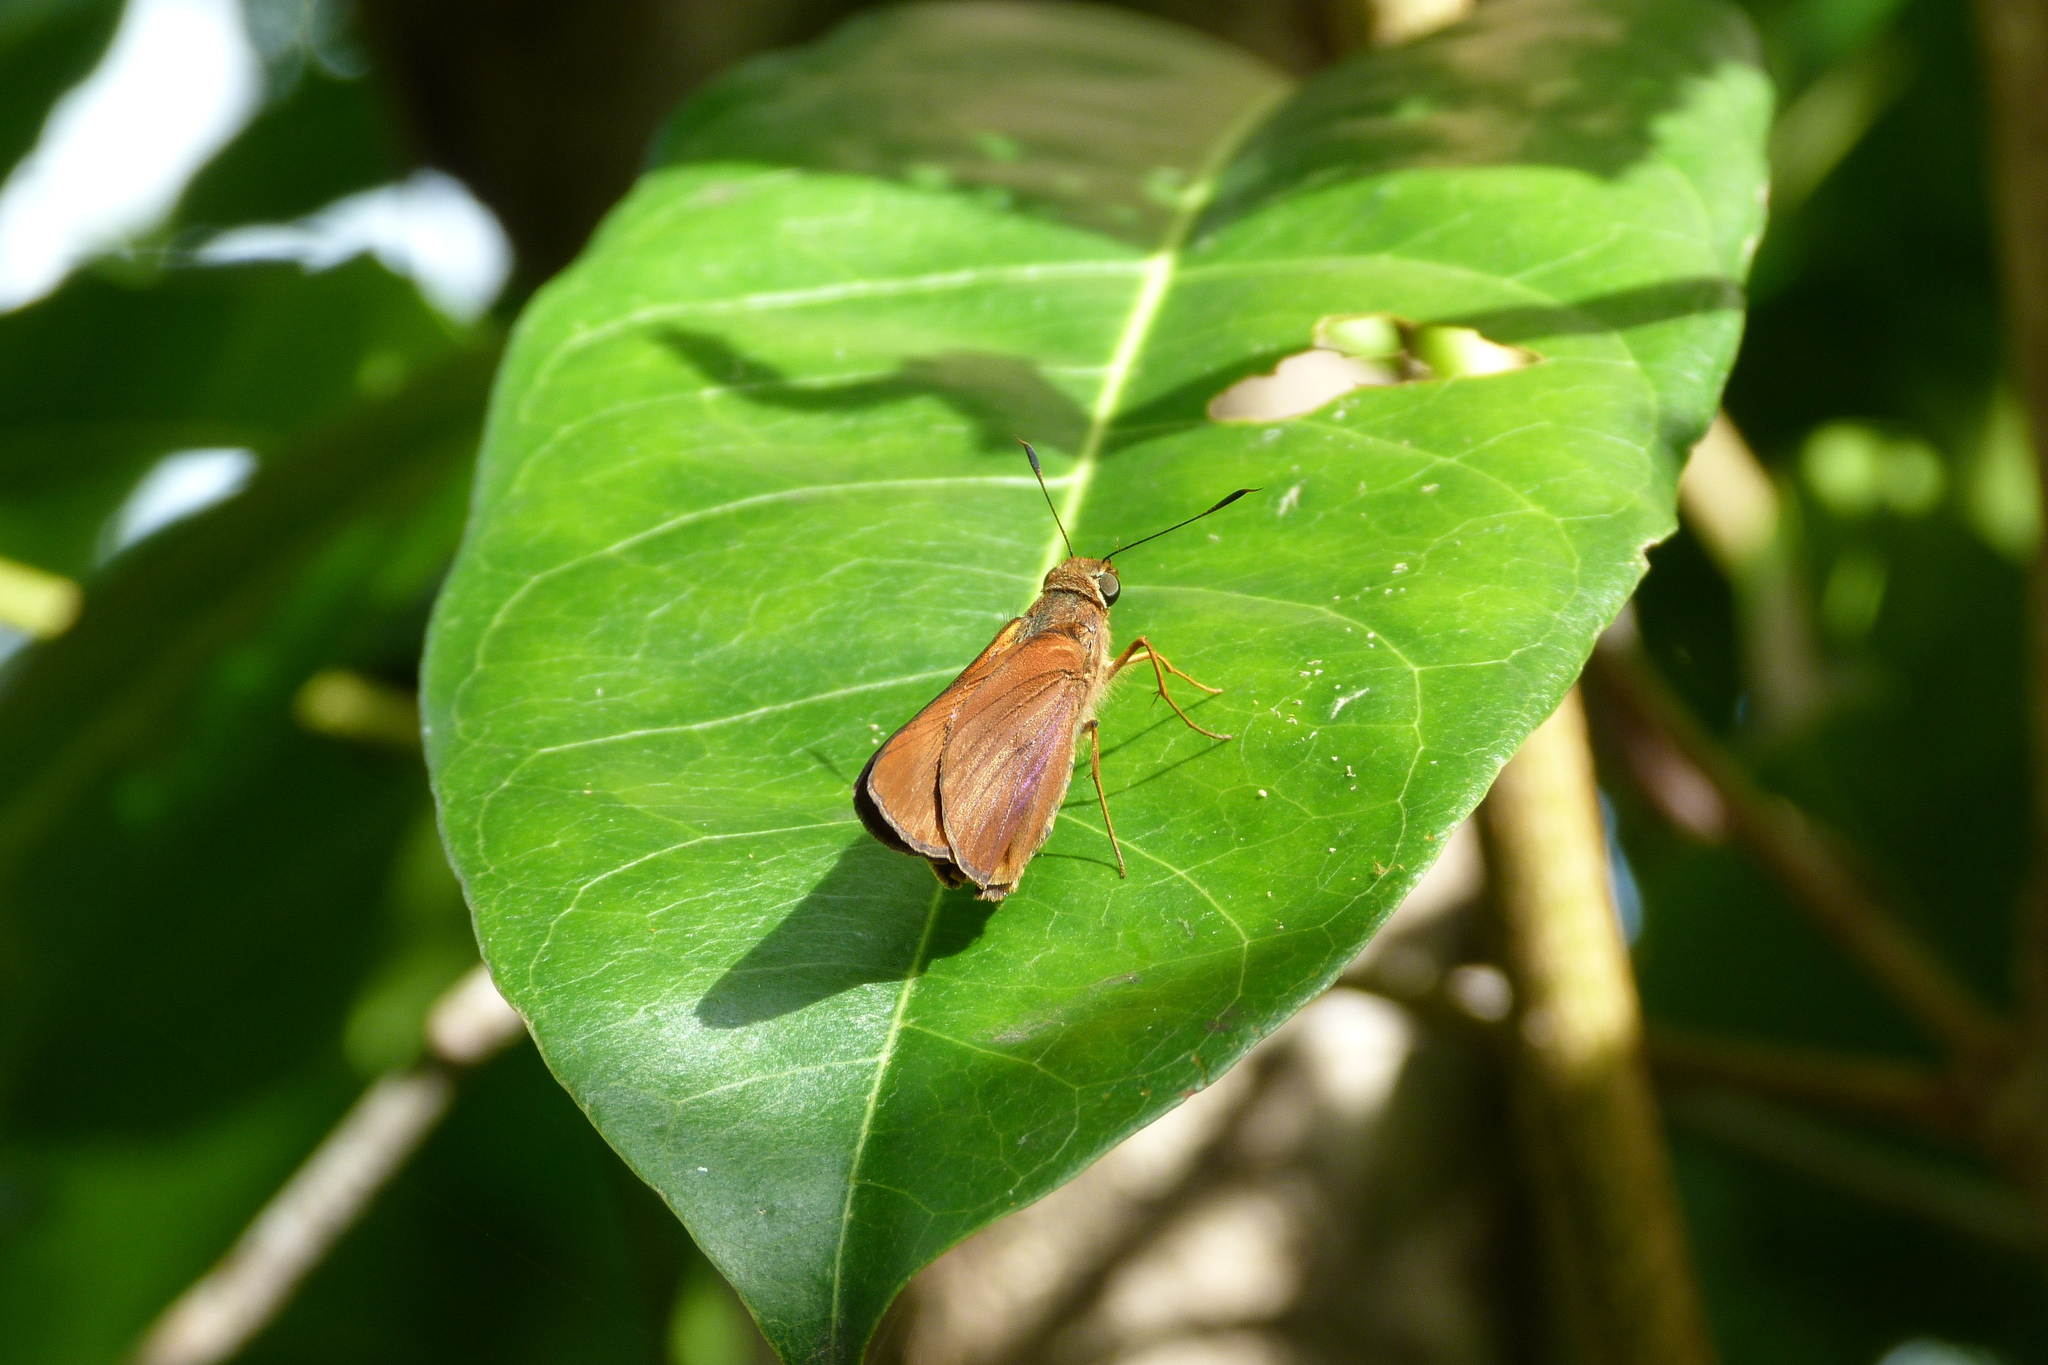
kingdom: Animalia
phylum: Arthropoda
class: Insecta
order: Lepidoptera
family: Hesperiidae
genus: Cephrenes
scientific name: Cephrenes augiades
